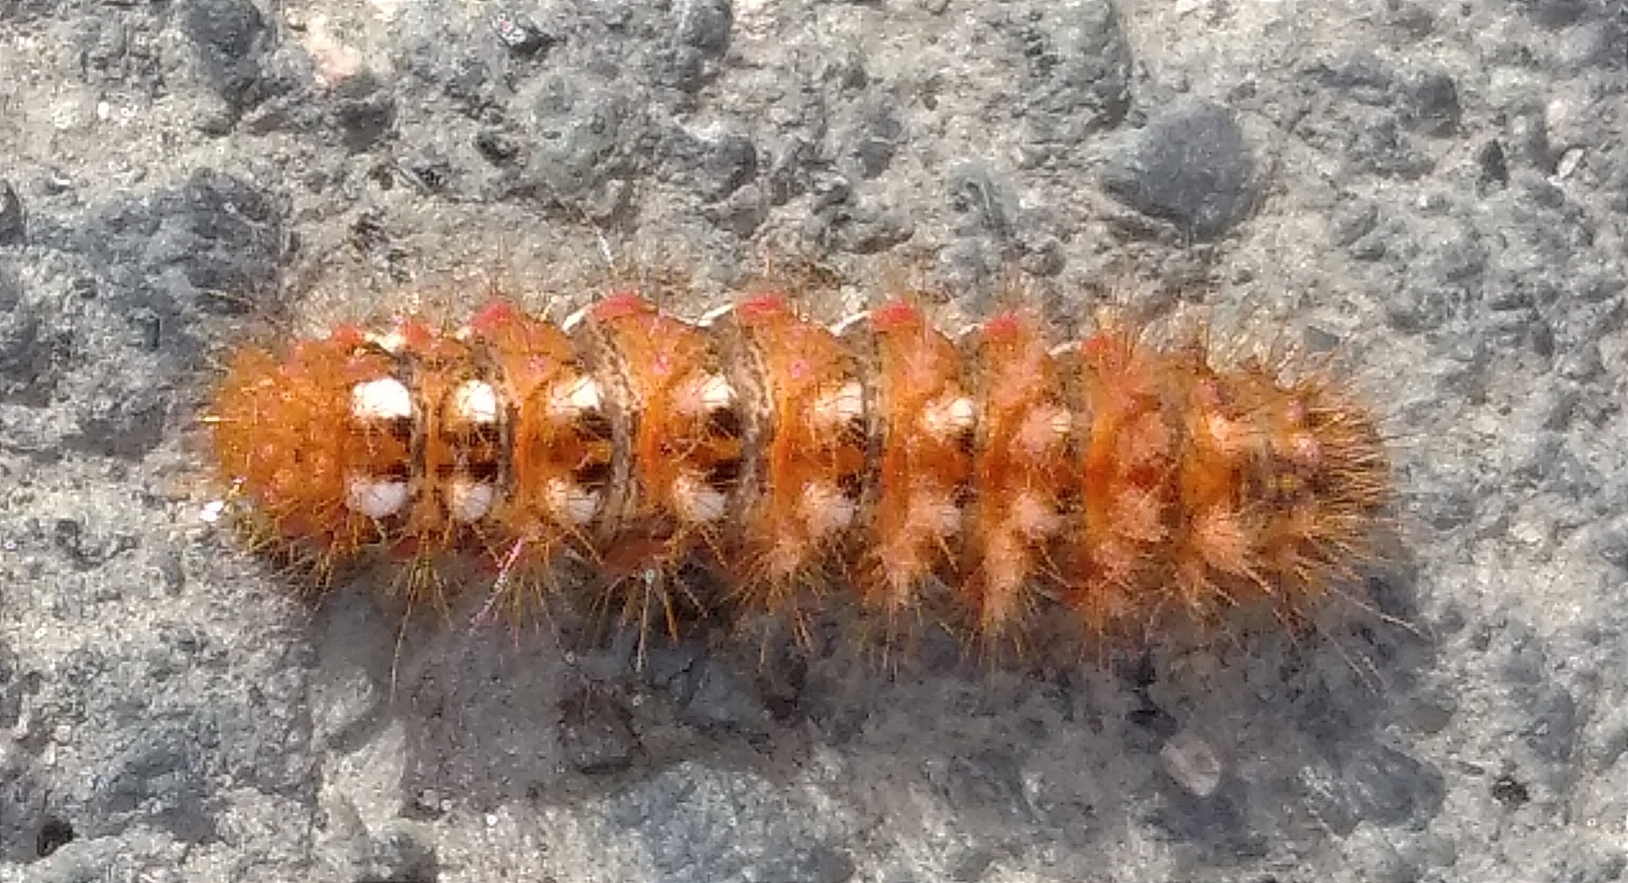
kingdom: Animalia
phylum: Arthropoda
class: Insecta
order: Lepidoptera
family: Noctuidae
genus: Acronicta
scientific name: Acronicta rumicis
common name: Knot grass
